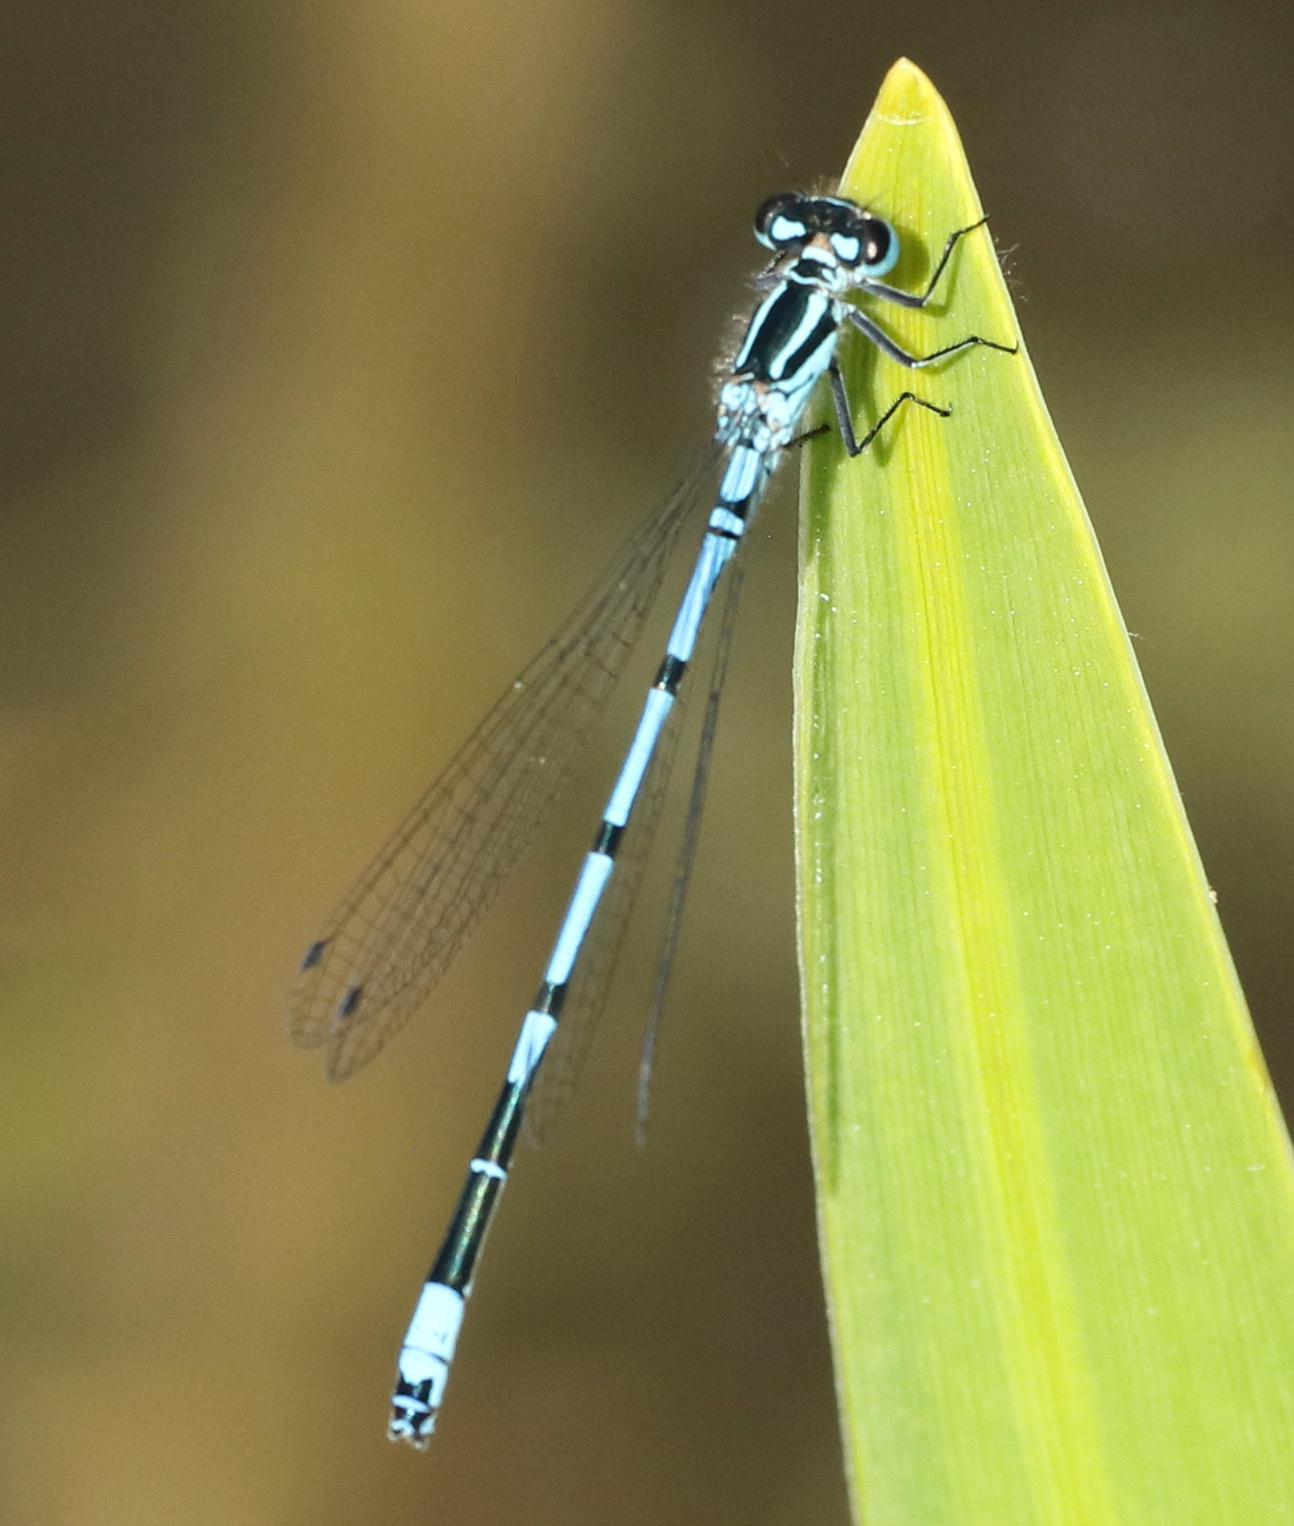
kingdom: Animalia
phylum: Arthropoda
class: Insecta
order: Odonata
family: Coenagrionidae
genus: Coenagrion
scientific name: Coenagrion puella
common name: Azure damselfly
